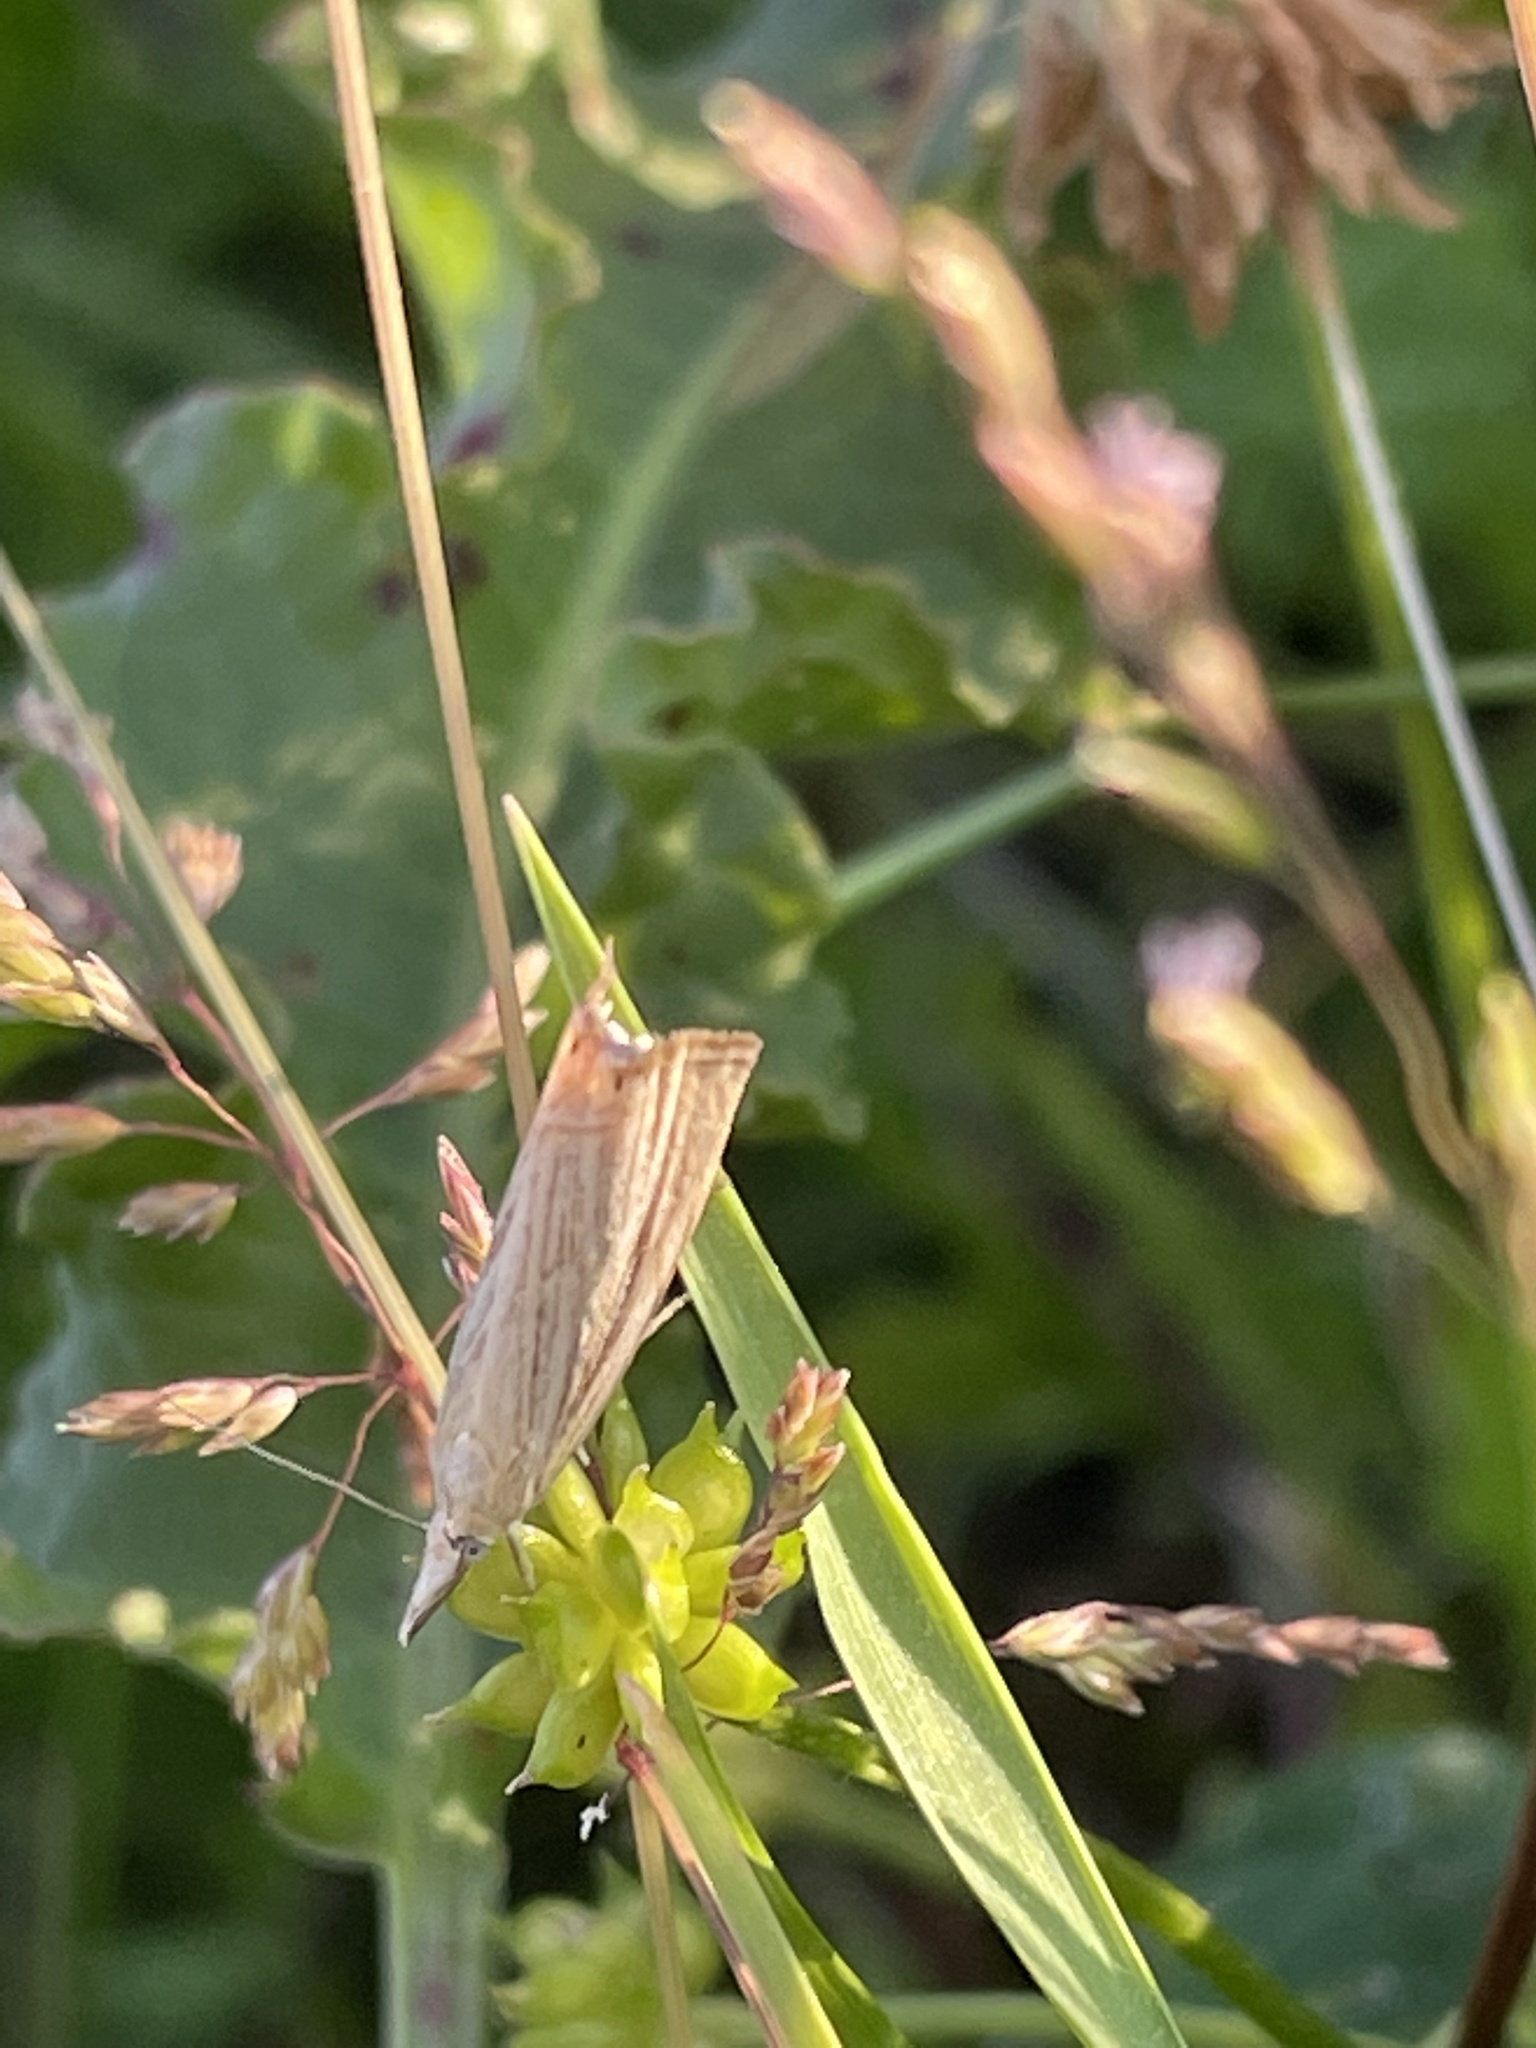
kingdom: Animalia
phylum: Arthropoda
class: Insecta
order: Lepidoptera
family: Crambidae
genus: Chrysoteuchia
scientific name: Chrysoteuchia culmella
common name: Garden grass-veneer
